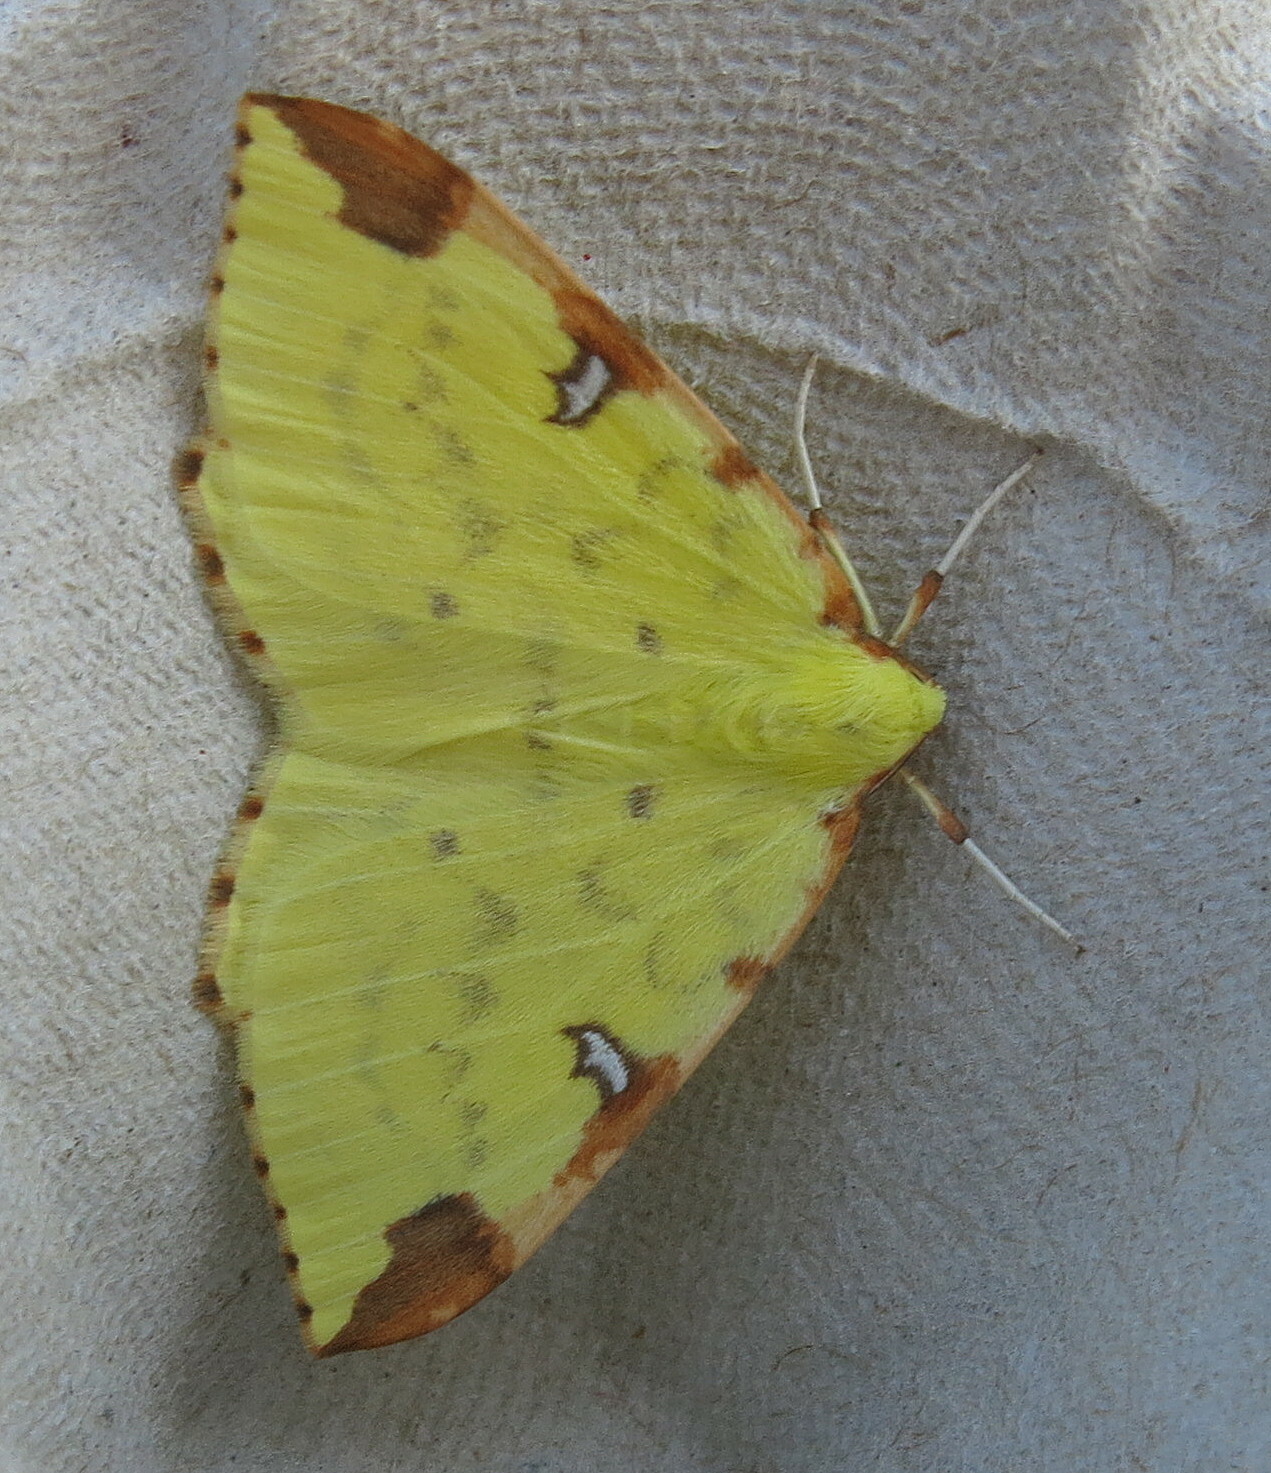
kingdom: Animalia
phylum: Arthropoda
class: Insecta
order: Lepidoptera
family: Geometridae
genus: Opisthograptis
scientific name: Opisthograptis luteolata
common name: Brimstone moth
